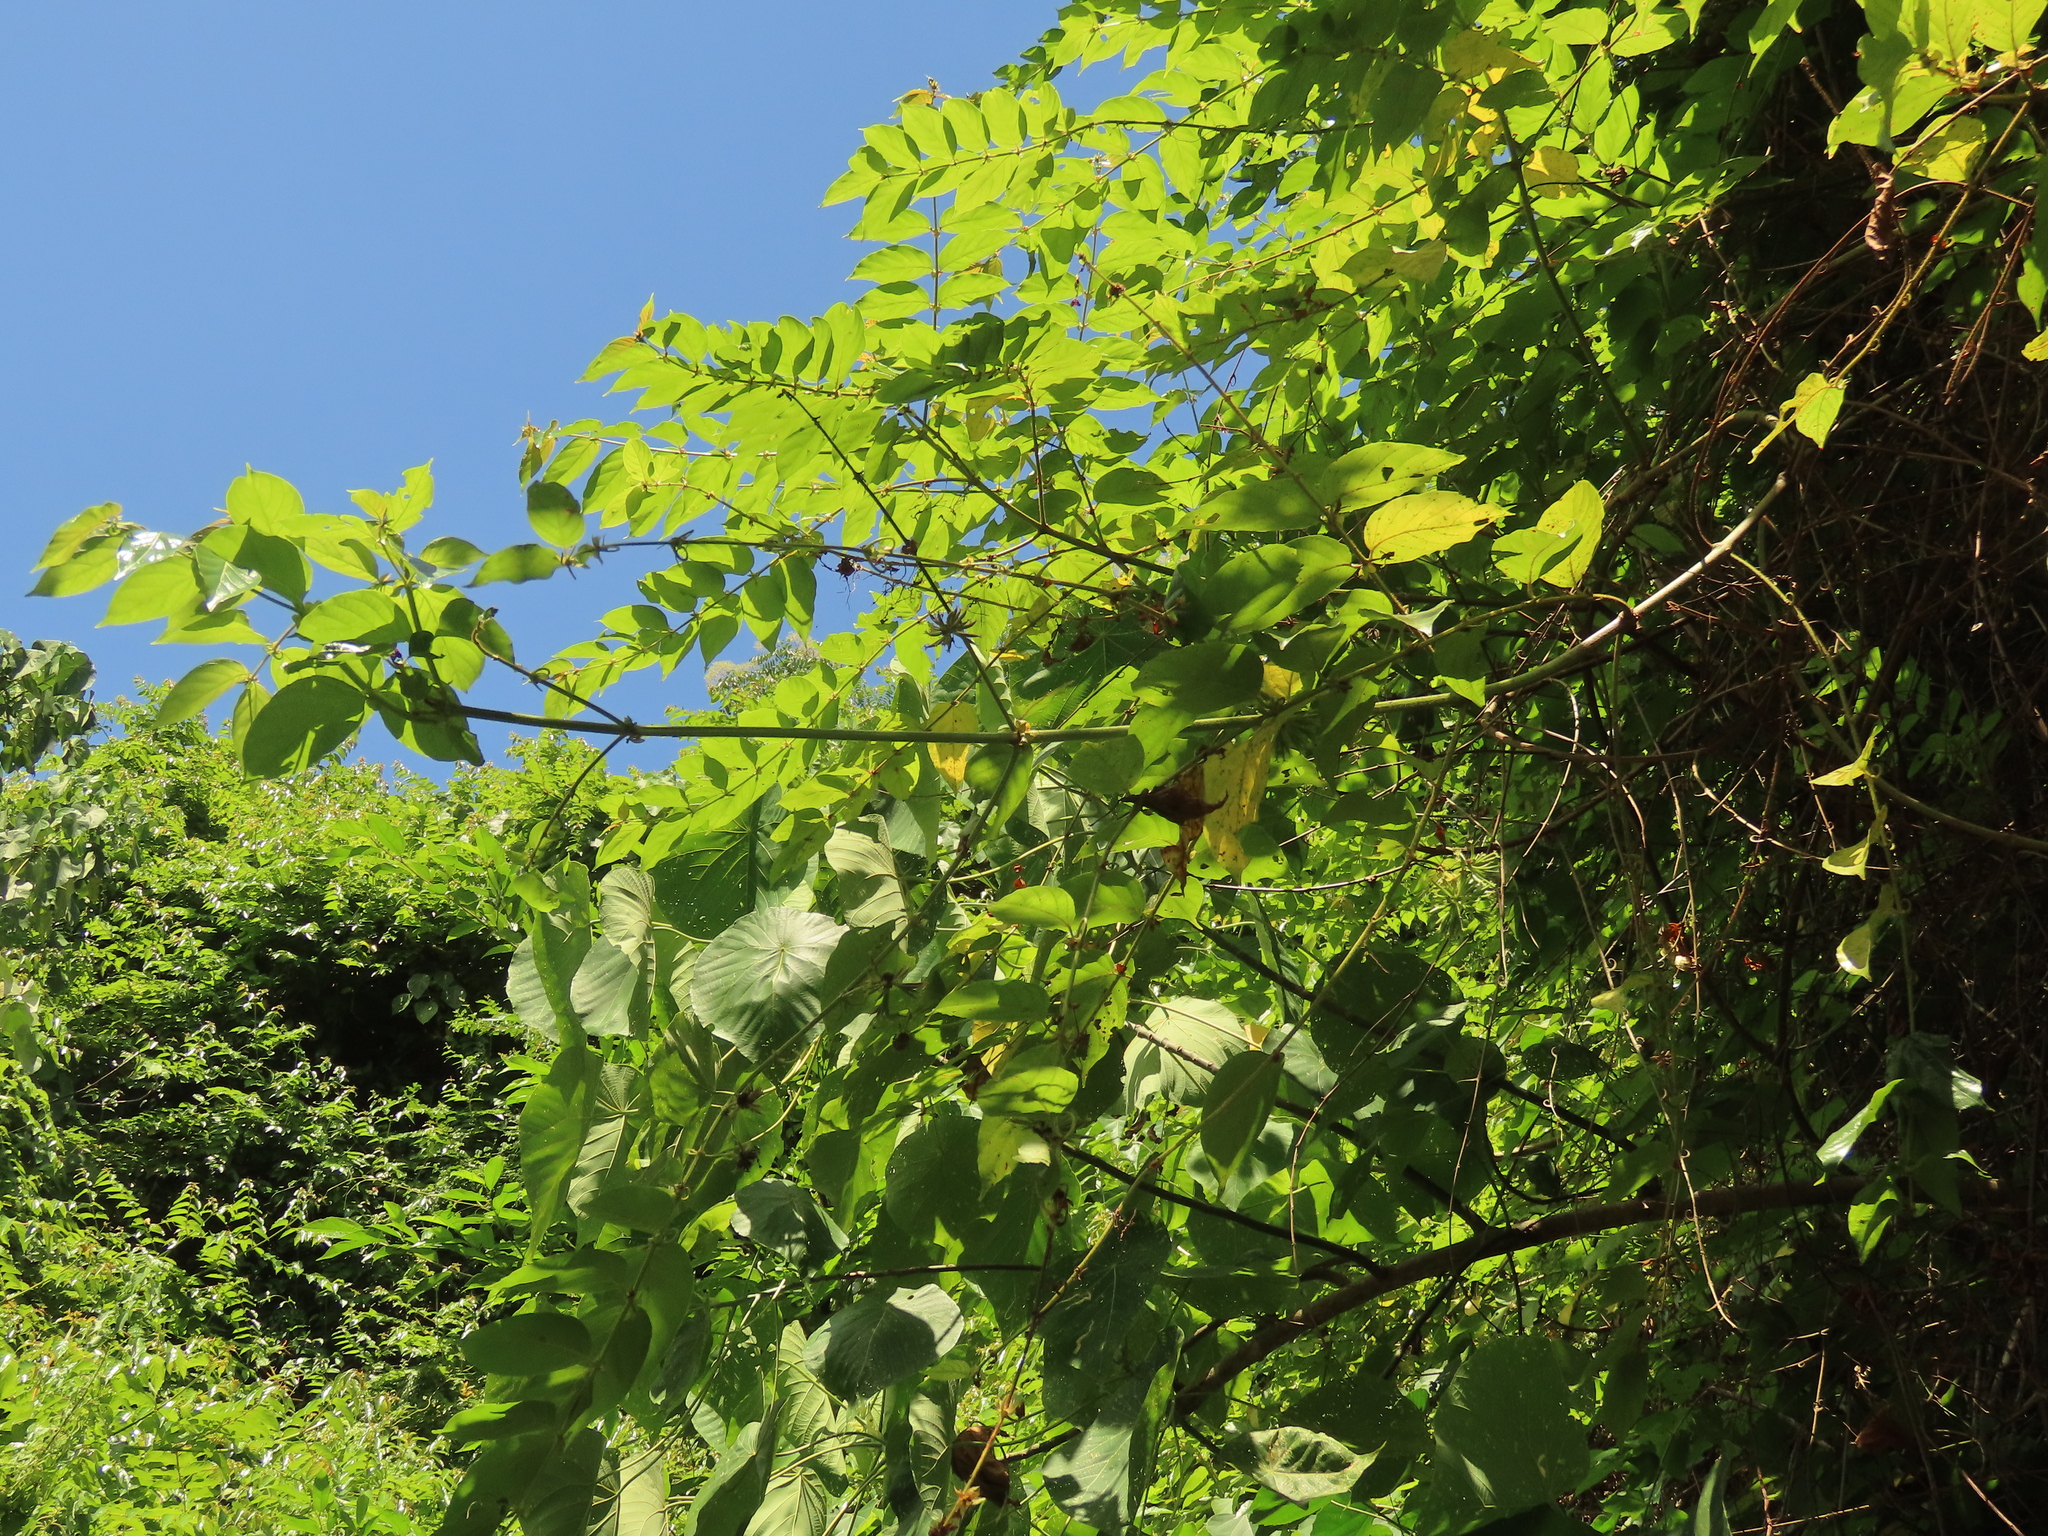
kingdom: Plantae
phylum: Tracheophyta
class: Magnoliopsida
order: Gentianales
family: Rubiaceae
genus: Uncaria
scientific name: Uncaria lanosa
